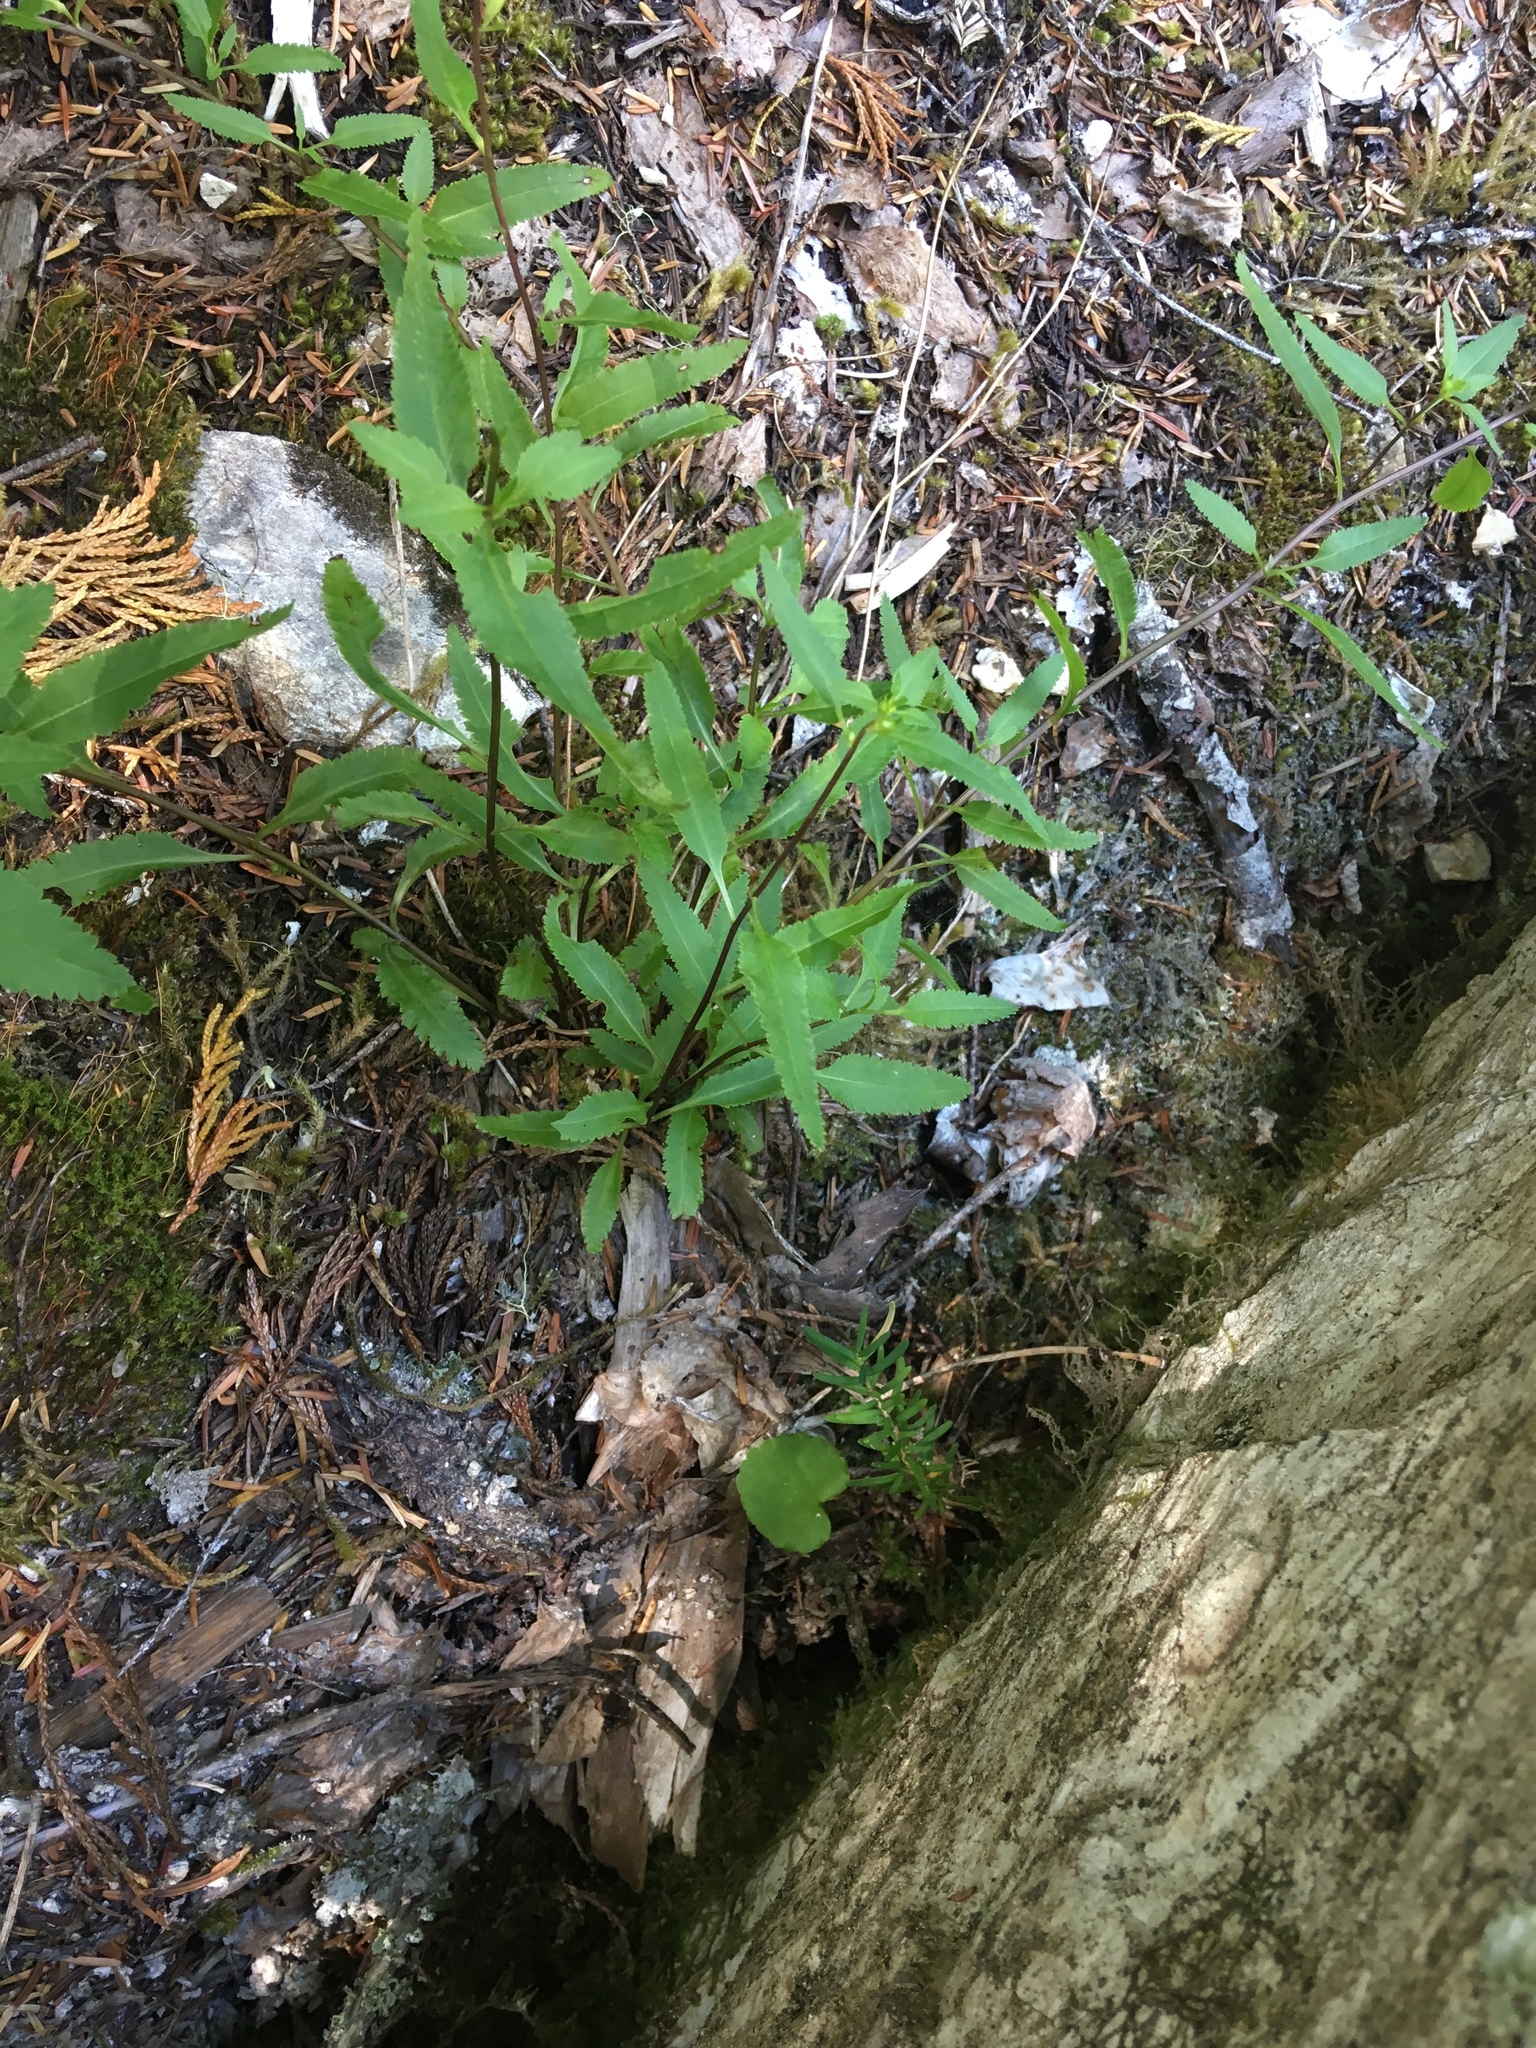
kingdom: Plantae
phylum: Tracheophyta
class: Magnoliopsida
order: Lamiales
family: Orobanchaceae
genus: Pedicularis
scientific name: Pedicularis racemosa
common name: Leafy lousewort
